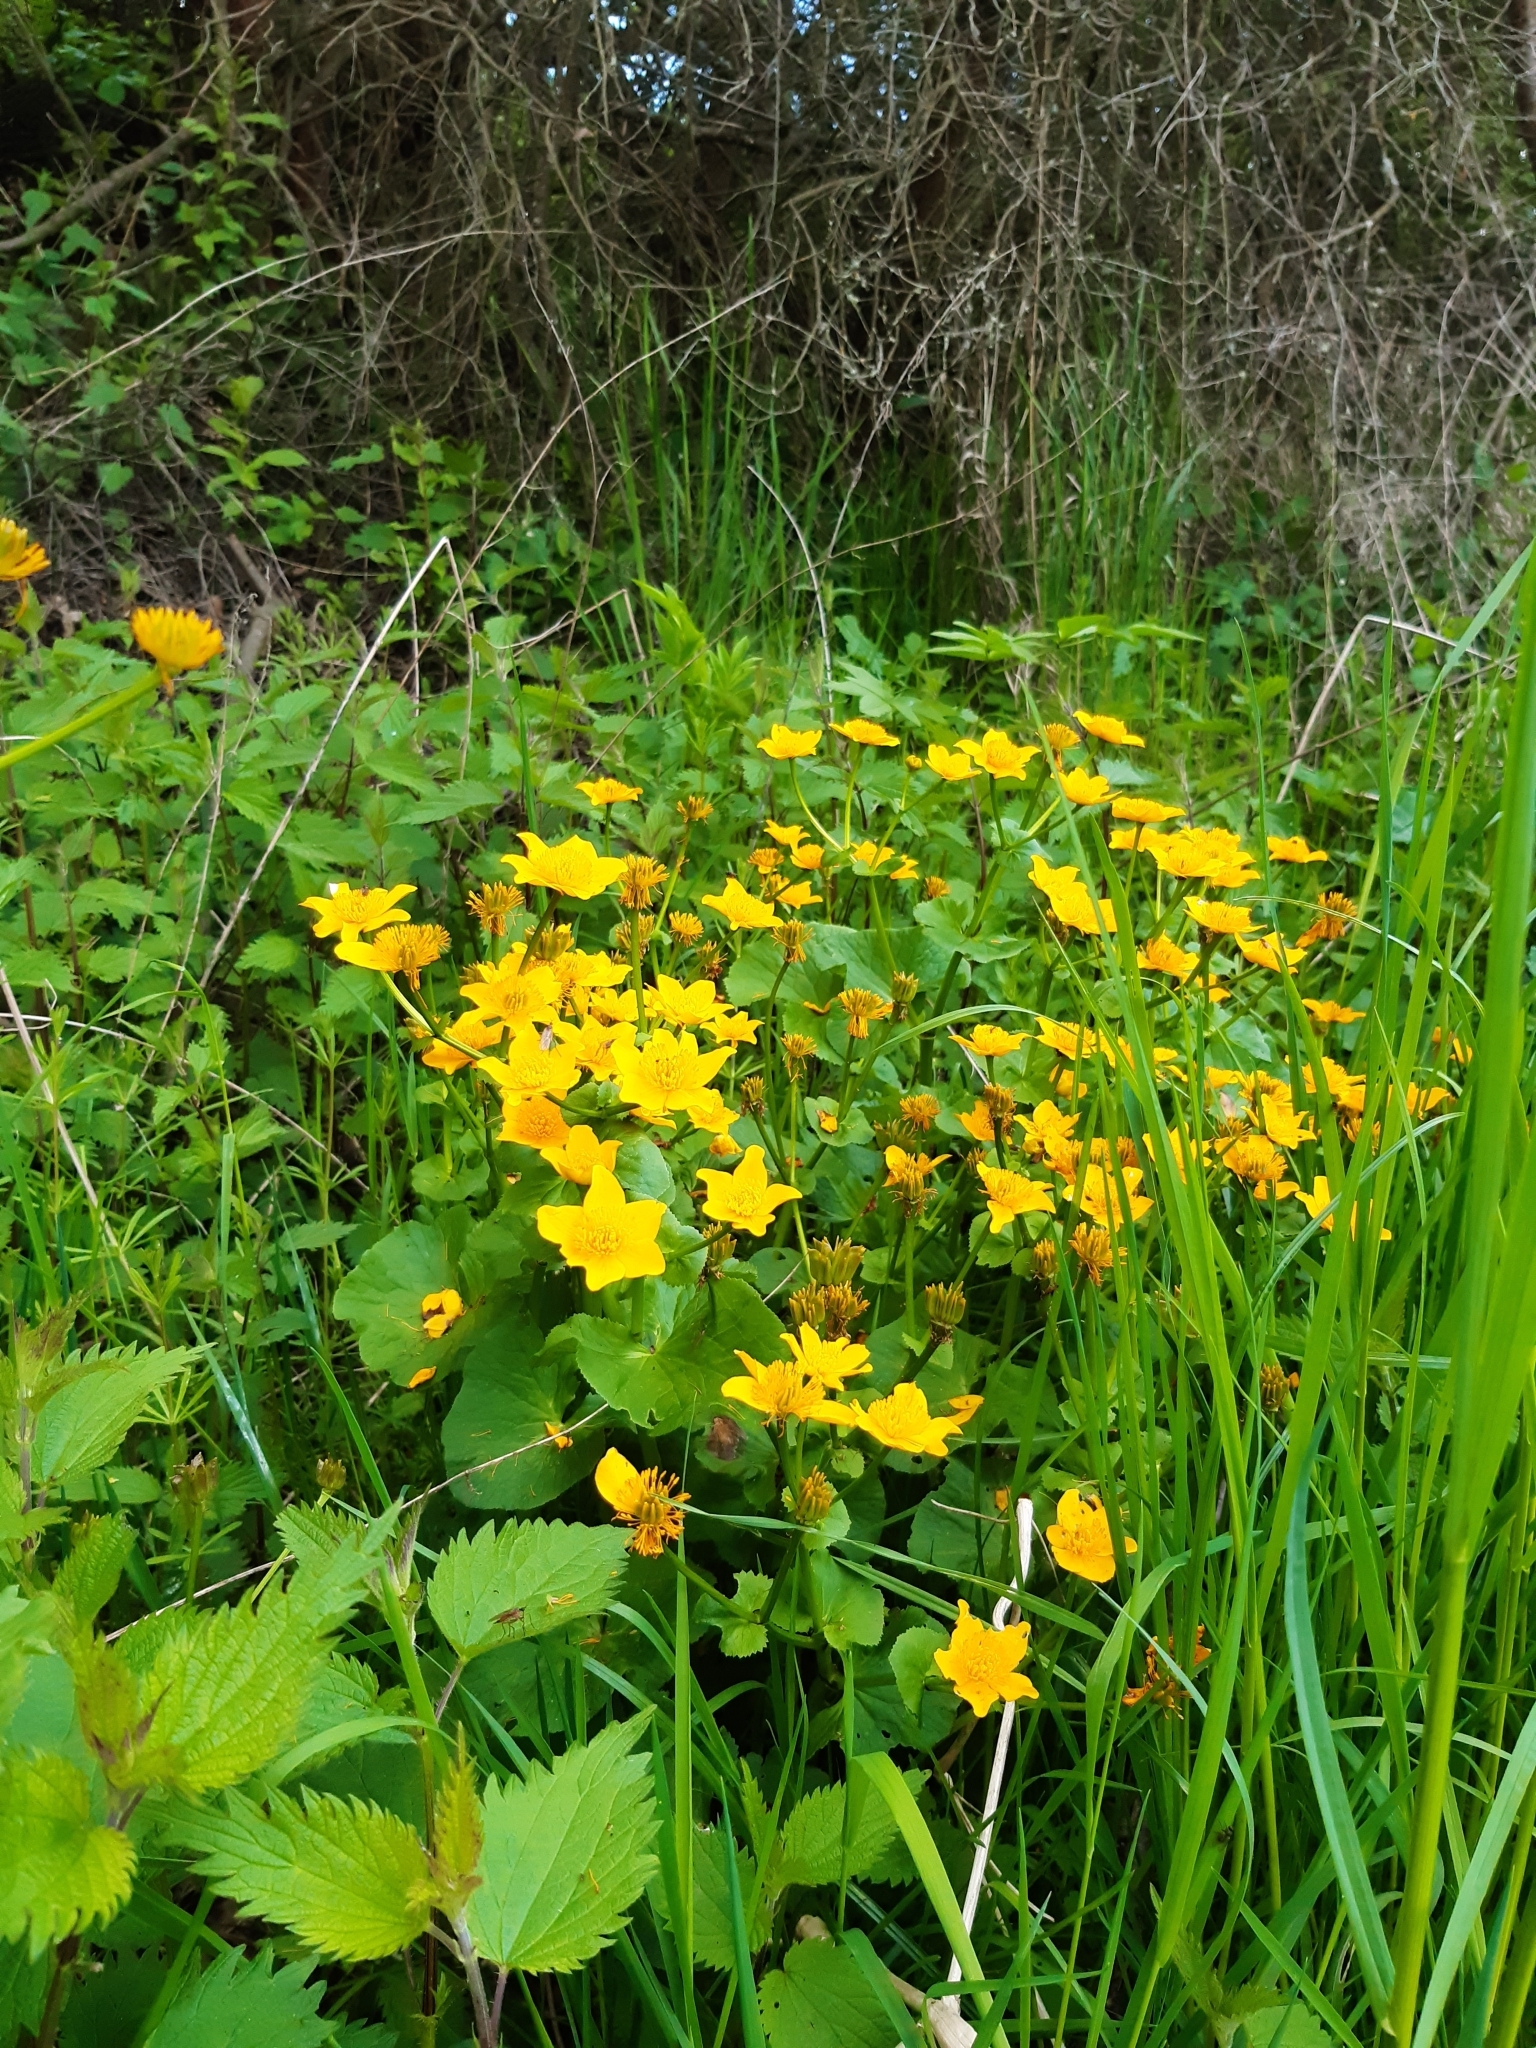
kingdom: Plantae
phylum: Tracheophyta
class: Magnoliopsida
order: Ranunculales
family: Ranunculaceae
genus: Caltha
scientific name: Caltha palustris
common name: Marsh marigold
